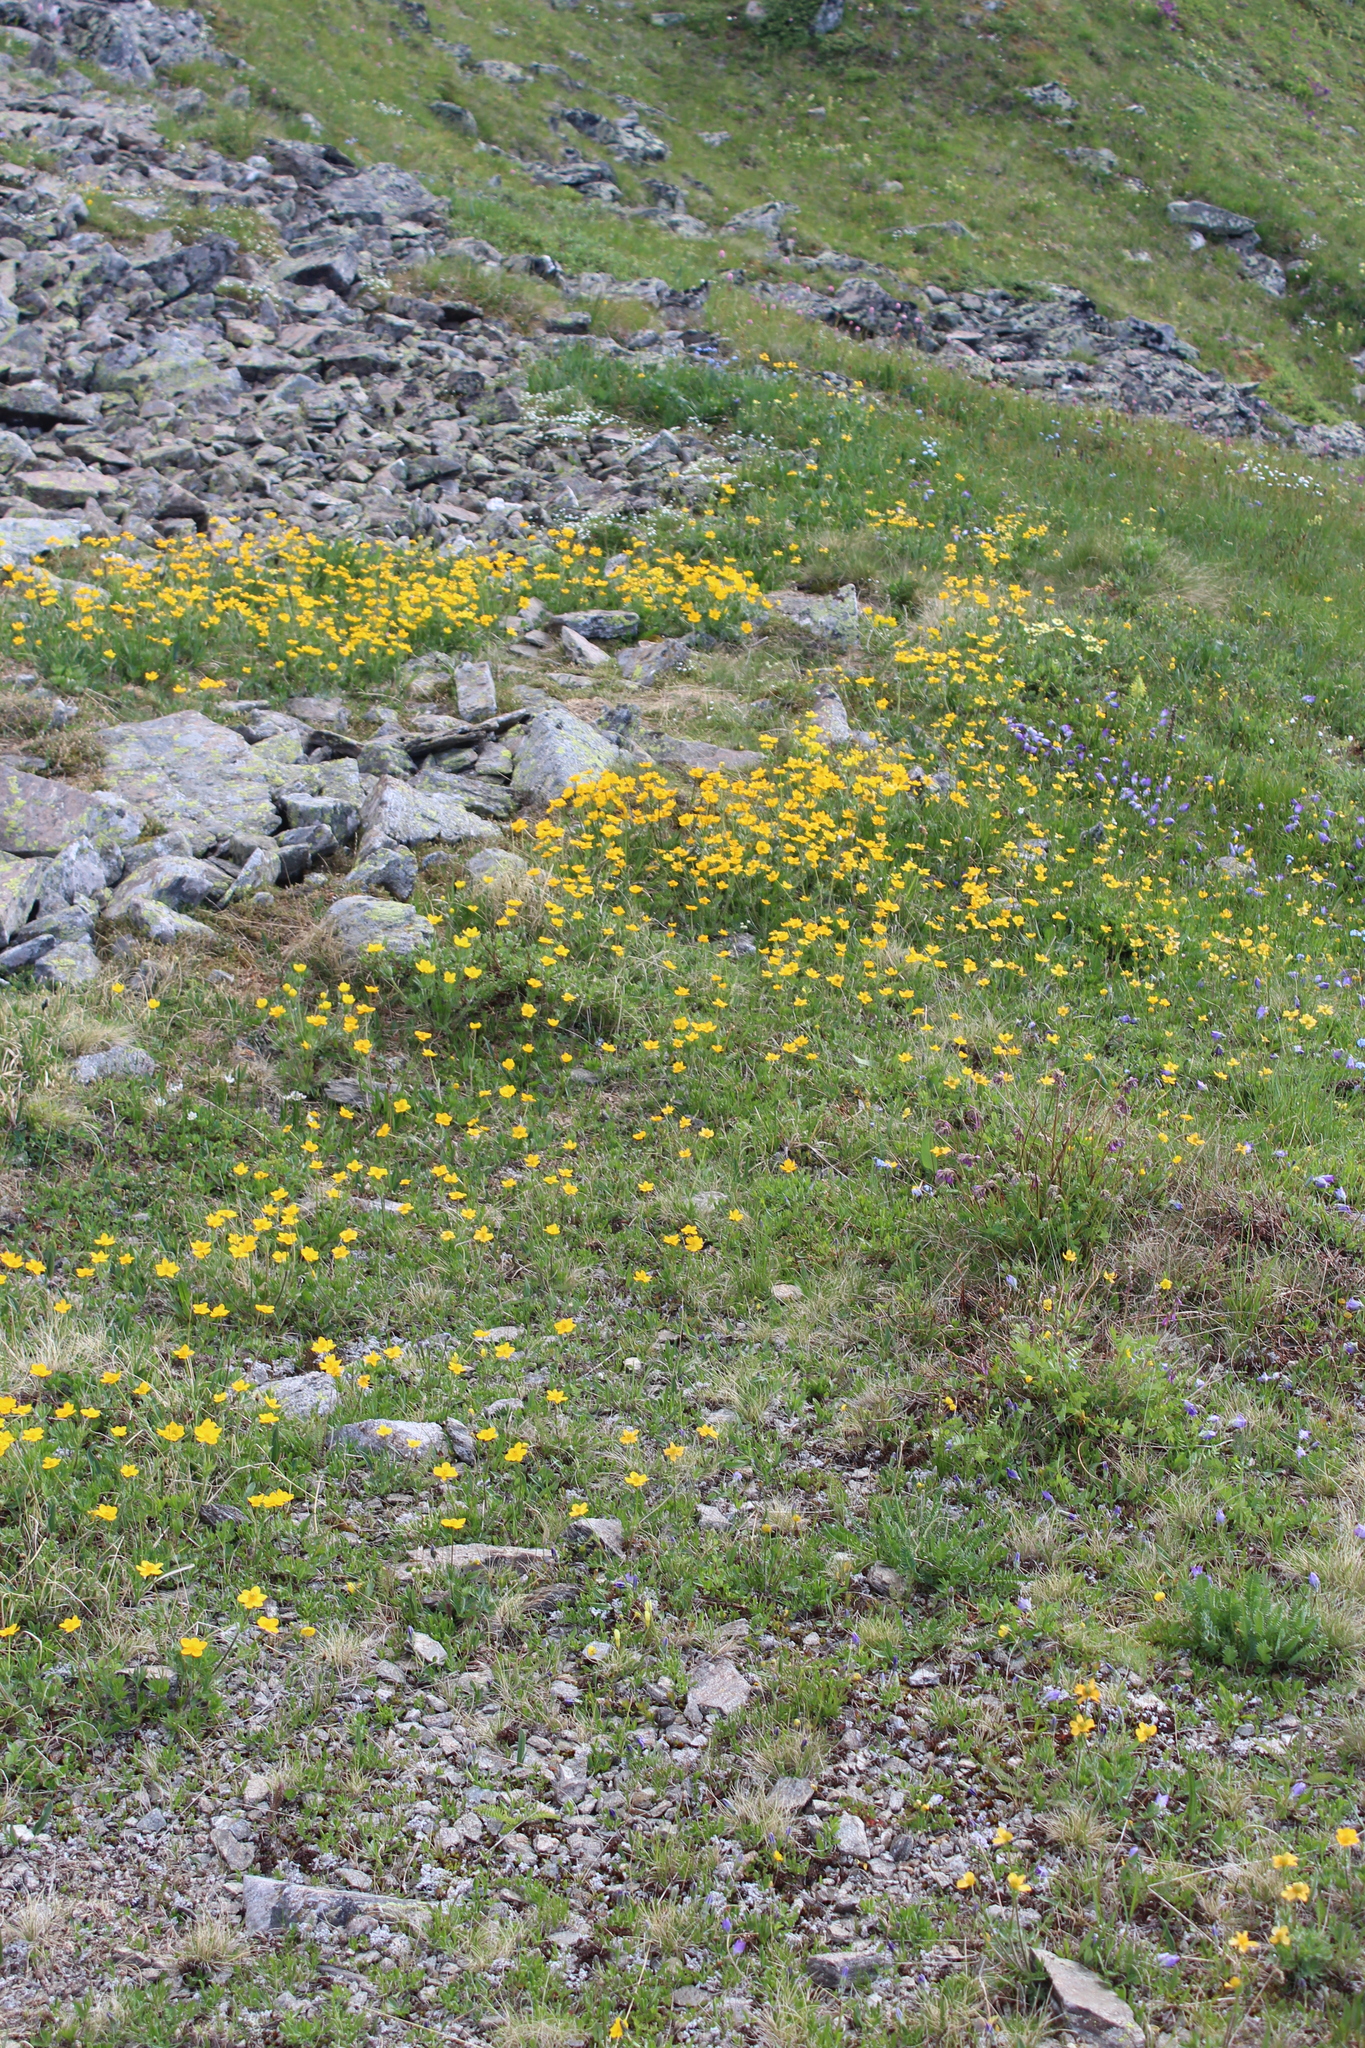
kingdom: Plantae
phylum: Tracheophyta
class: Magnoliopsida
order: Ranunculales
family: Ranunculaceae
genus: Anemonastrum
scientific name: Anemonastrum narcissiflorum
